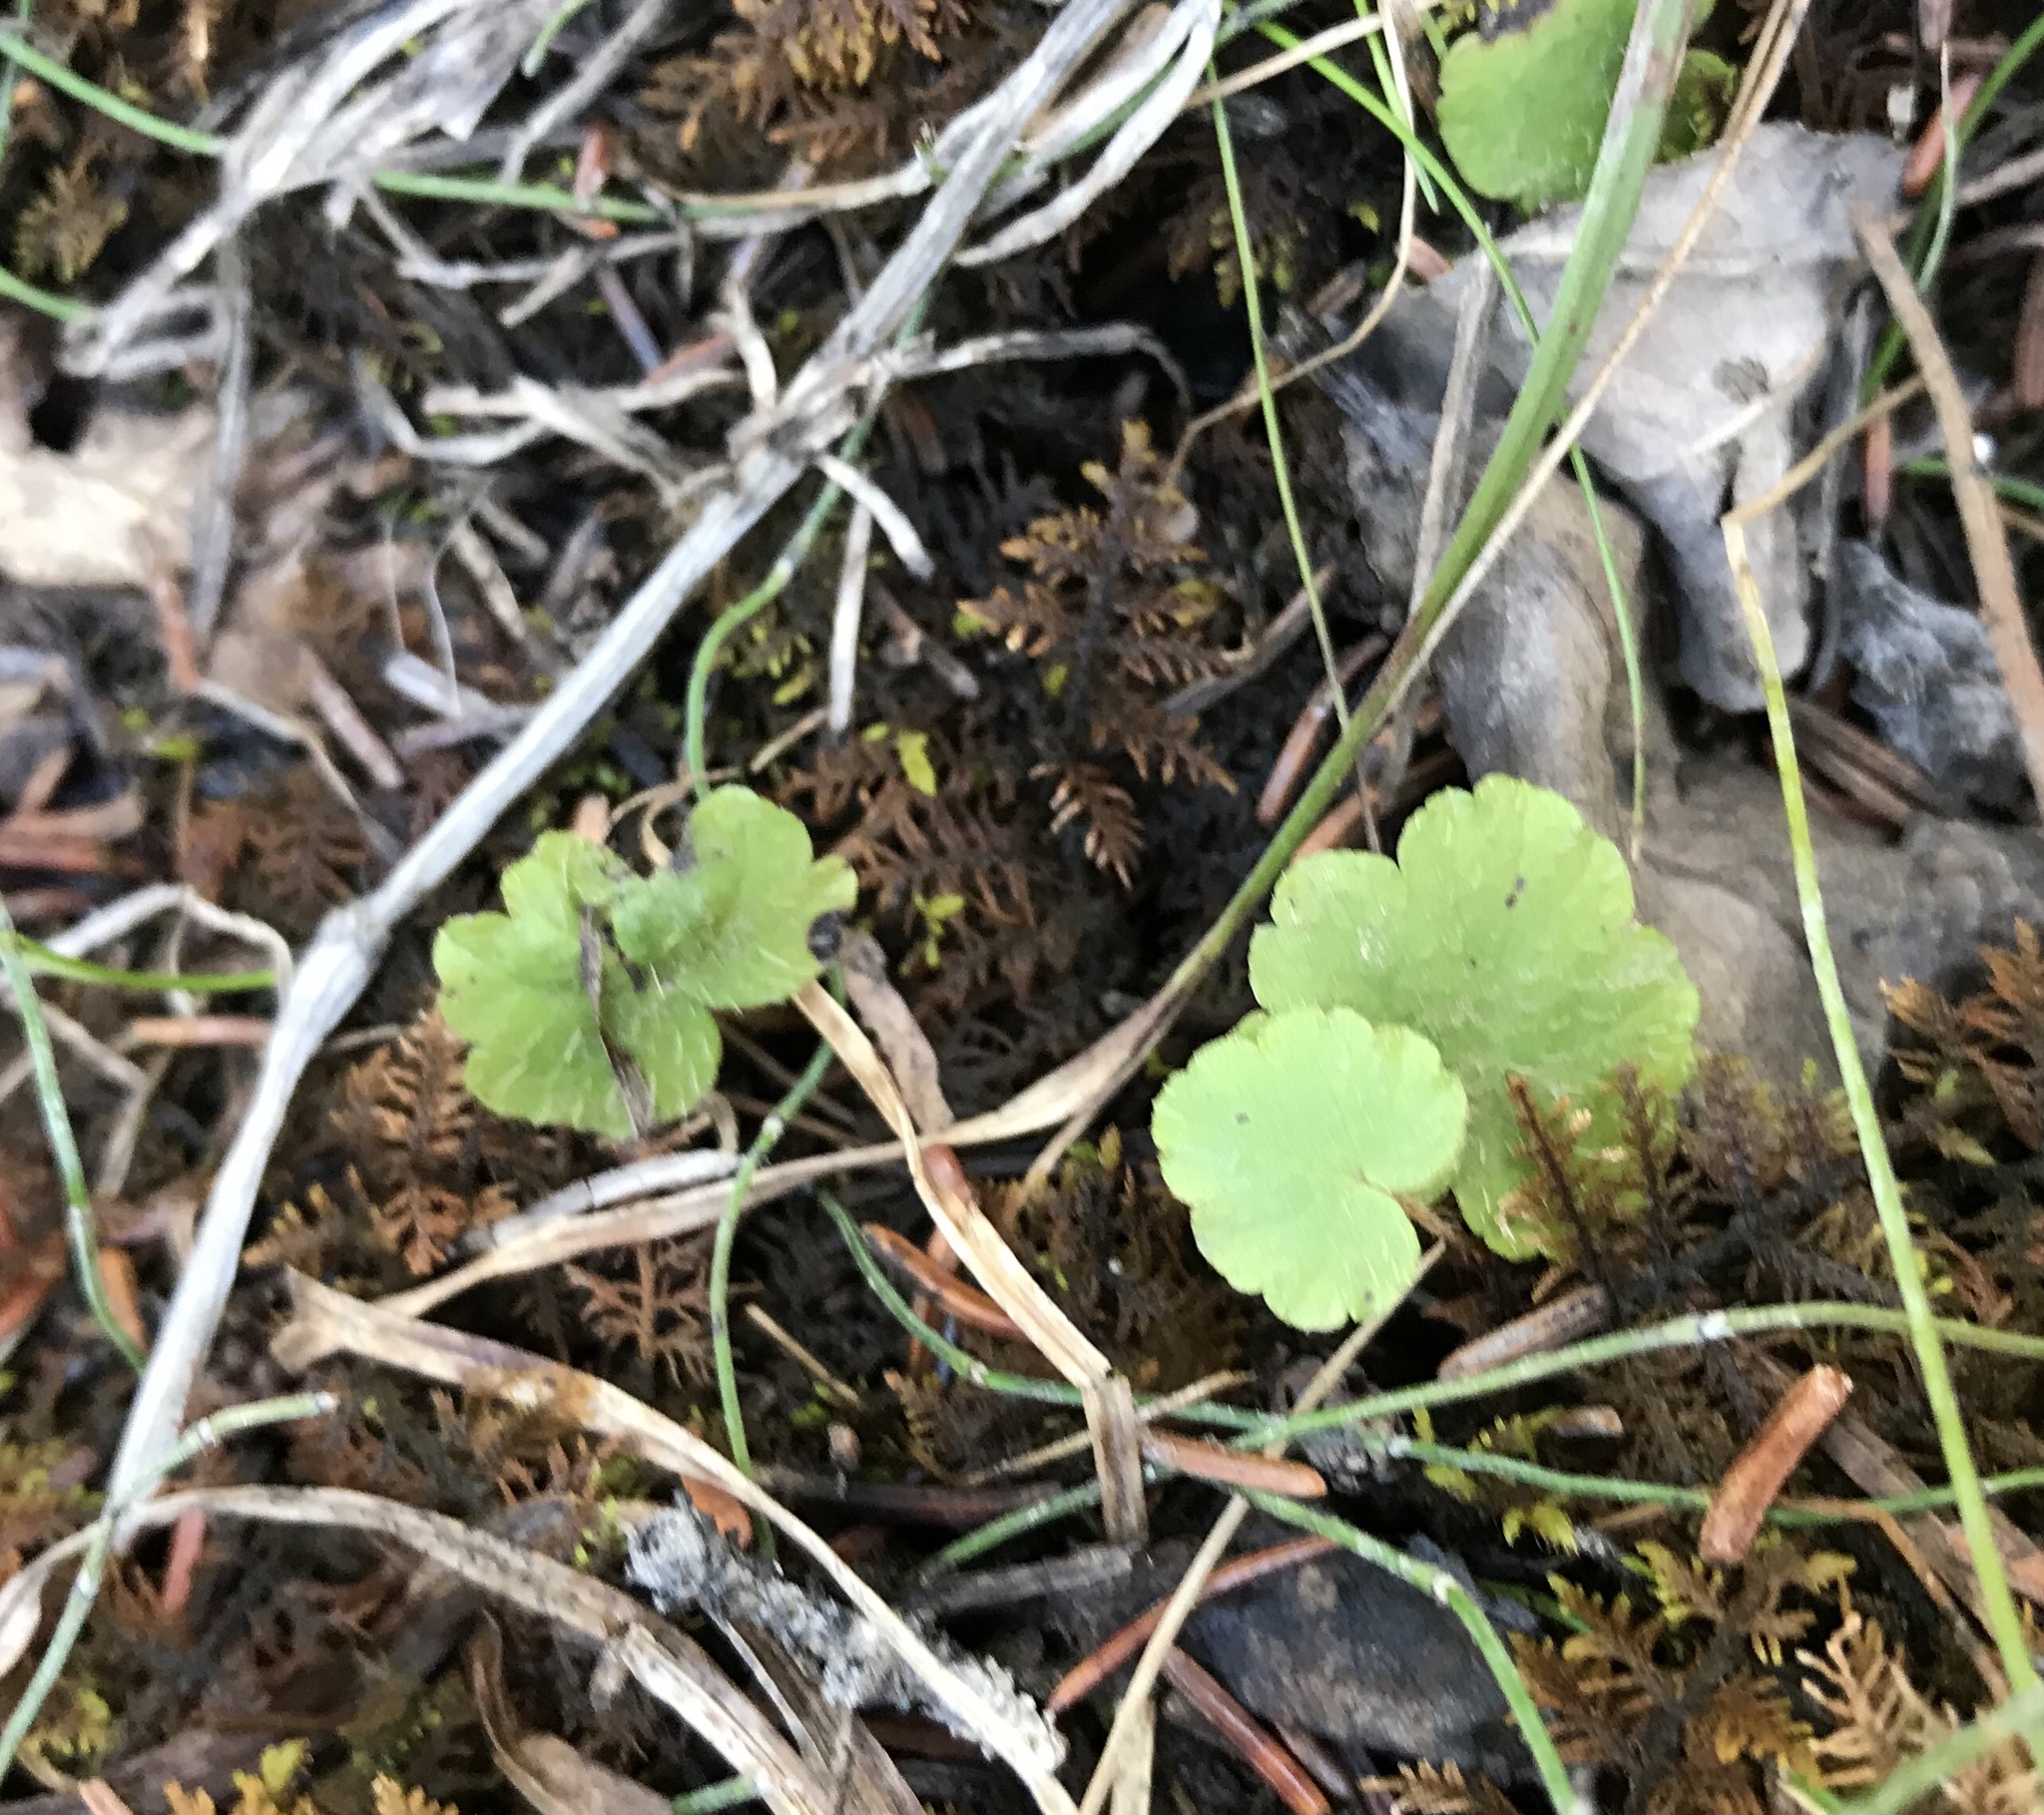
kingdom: Plantae
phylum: Tracheophyta
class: Magnoliopsida
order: Saxifragales
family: Saxifragaceae
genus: Mitella
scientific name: Mitella nuda
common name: Bare-stemmed bishop's-cap
